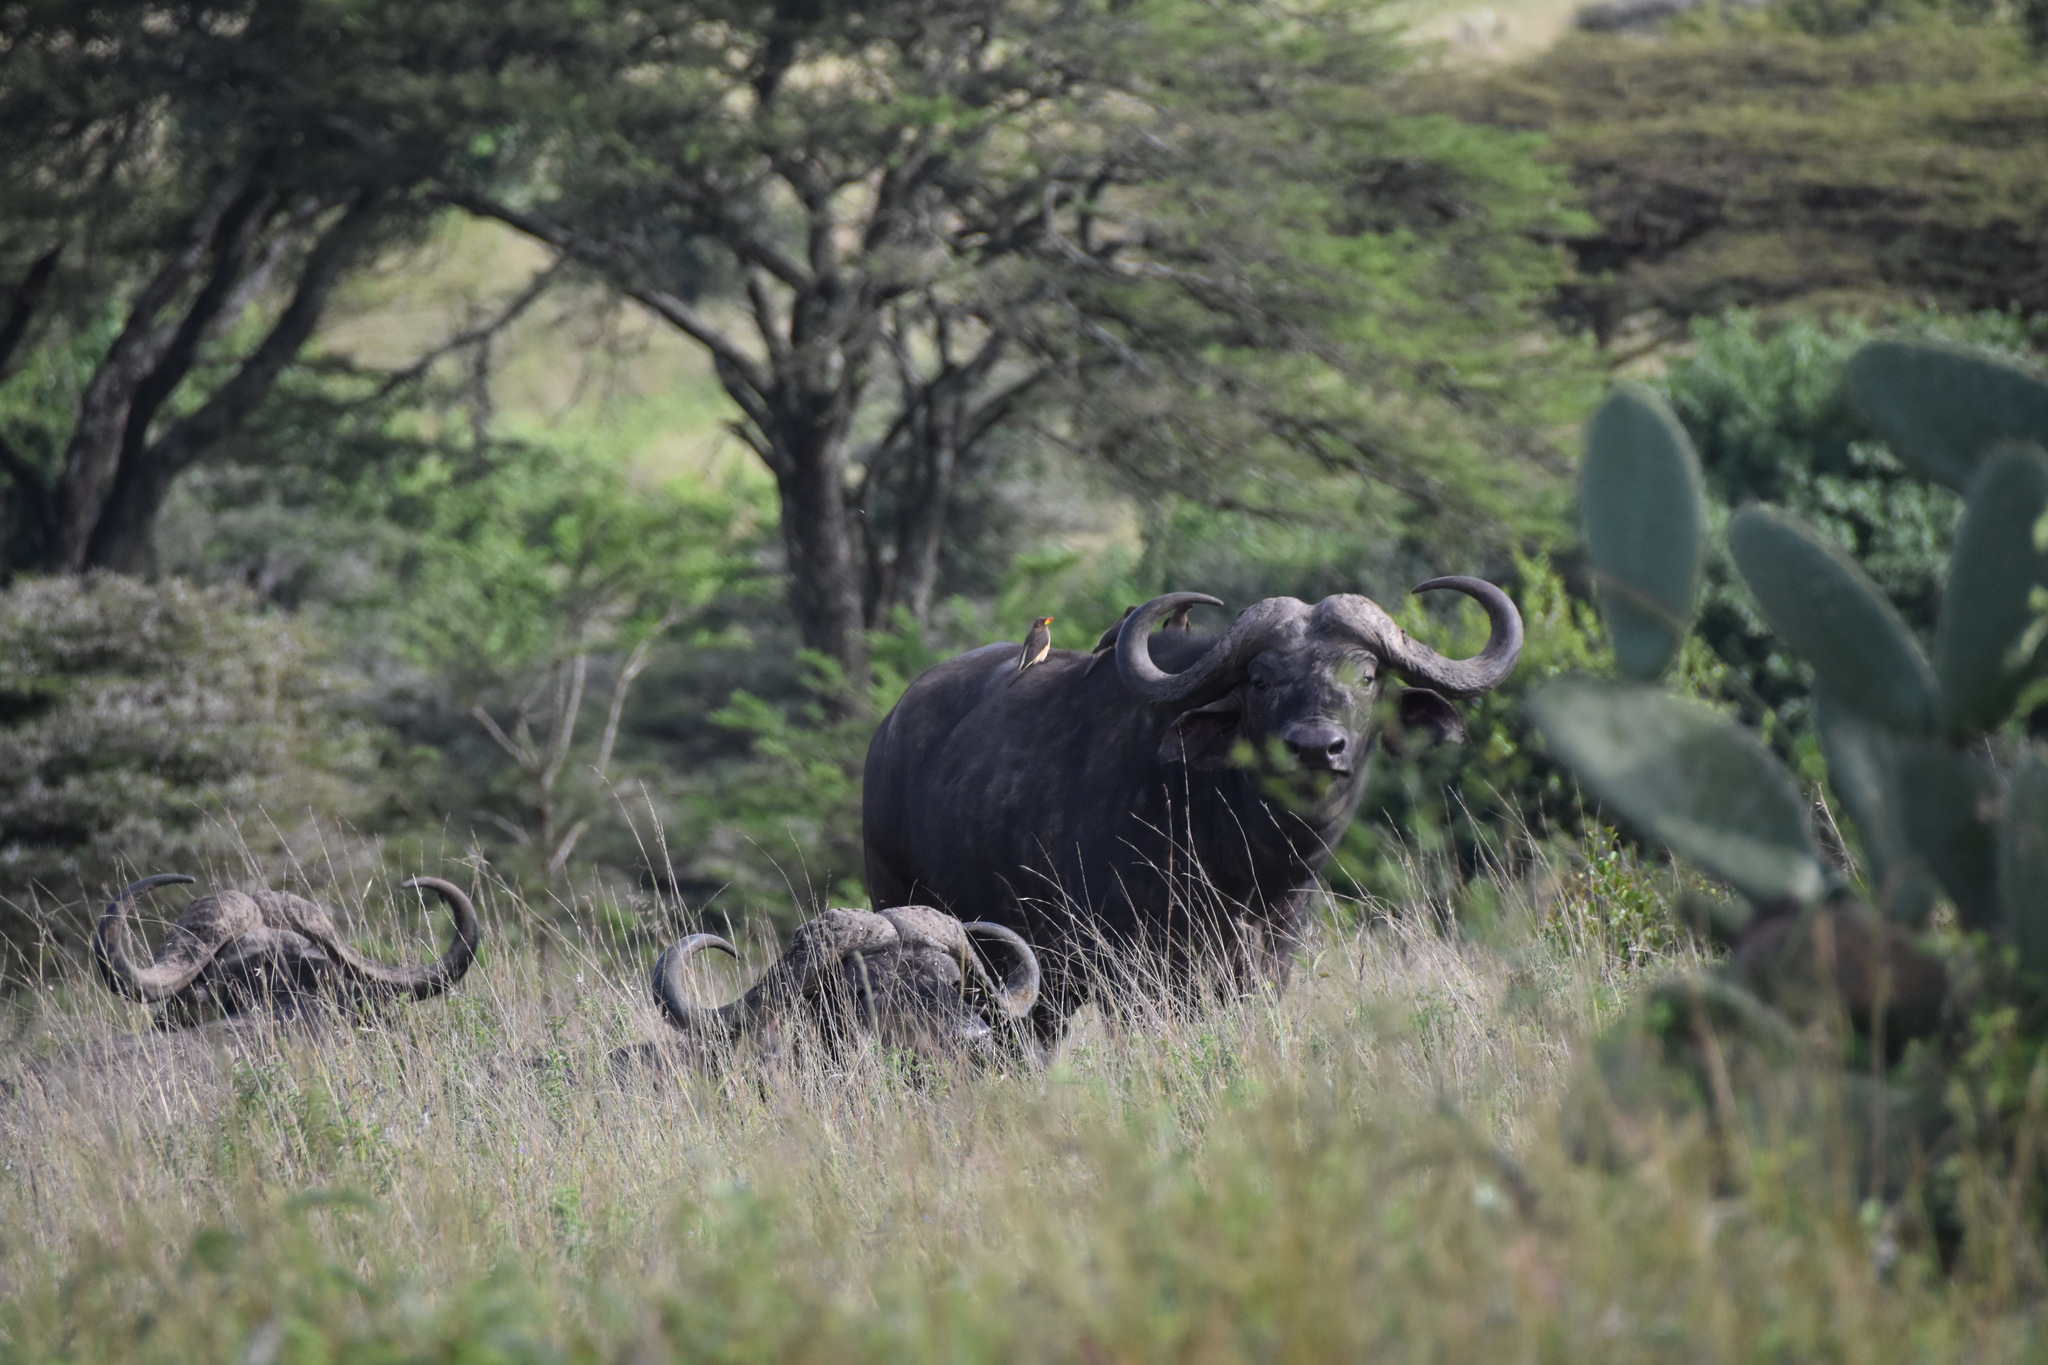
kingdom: Animalia
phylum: Chordata
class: Mammalia
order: Artiodactyla
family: Bovidae
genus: Syncerus
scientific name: Syncerus caffer
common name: African buffalo
